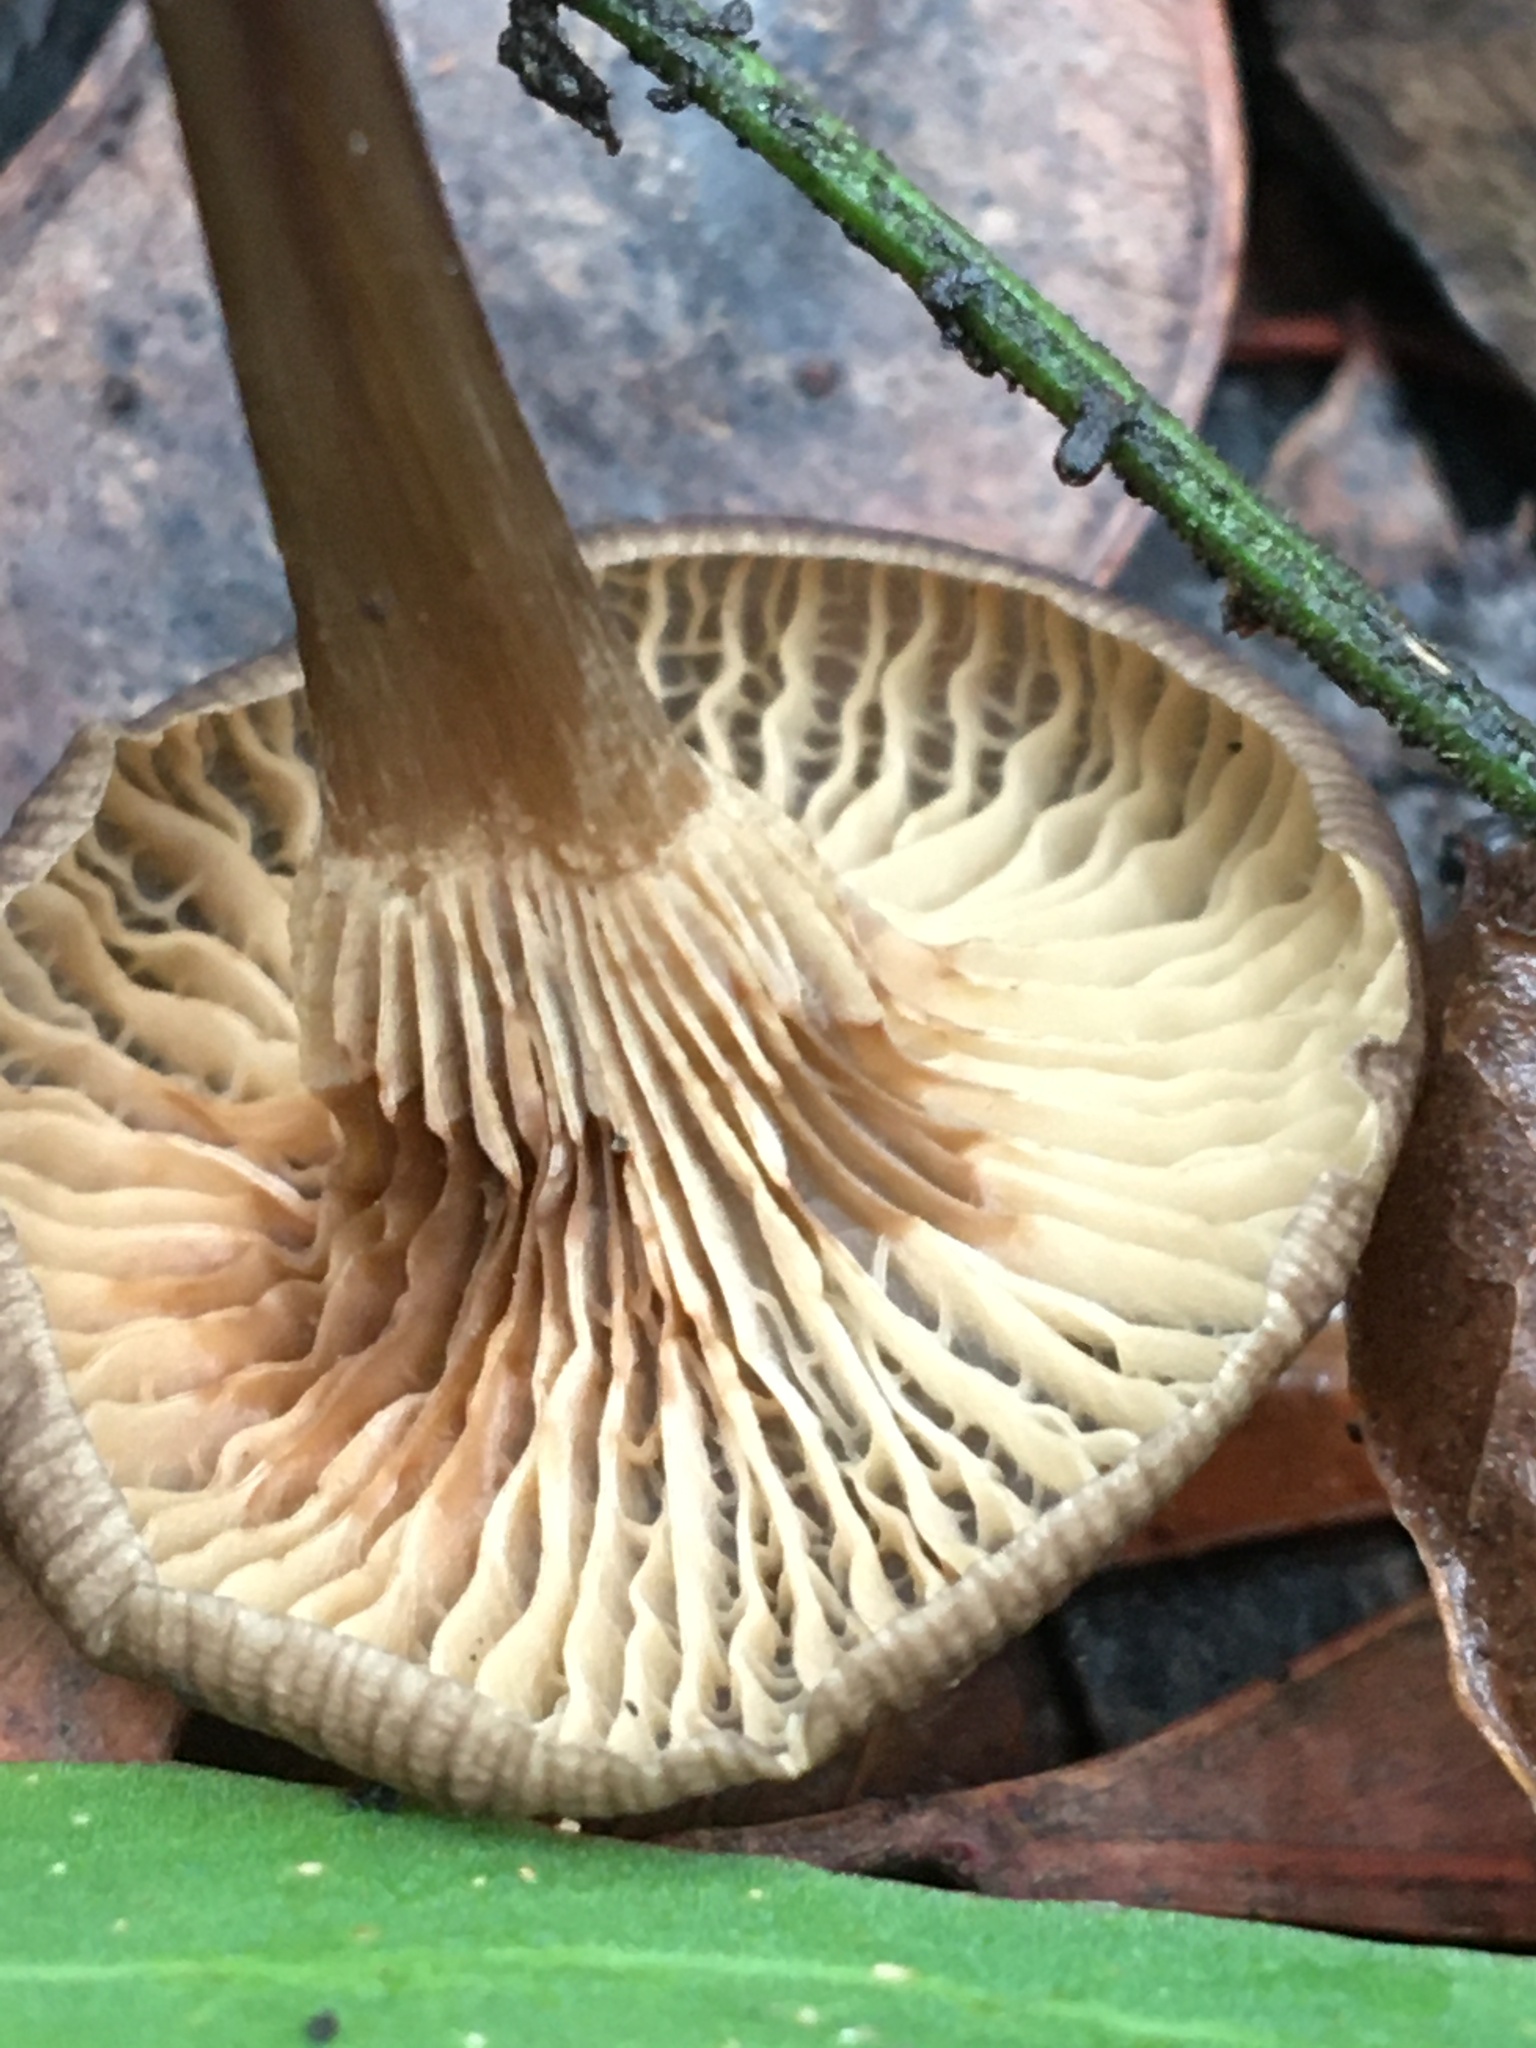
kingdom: Fungi
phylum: Basidiomycota
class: Agaricomycetes
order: Agaricales
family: Marasmiaceae
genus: Trogia
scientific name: Trogia straminea
